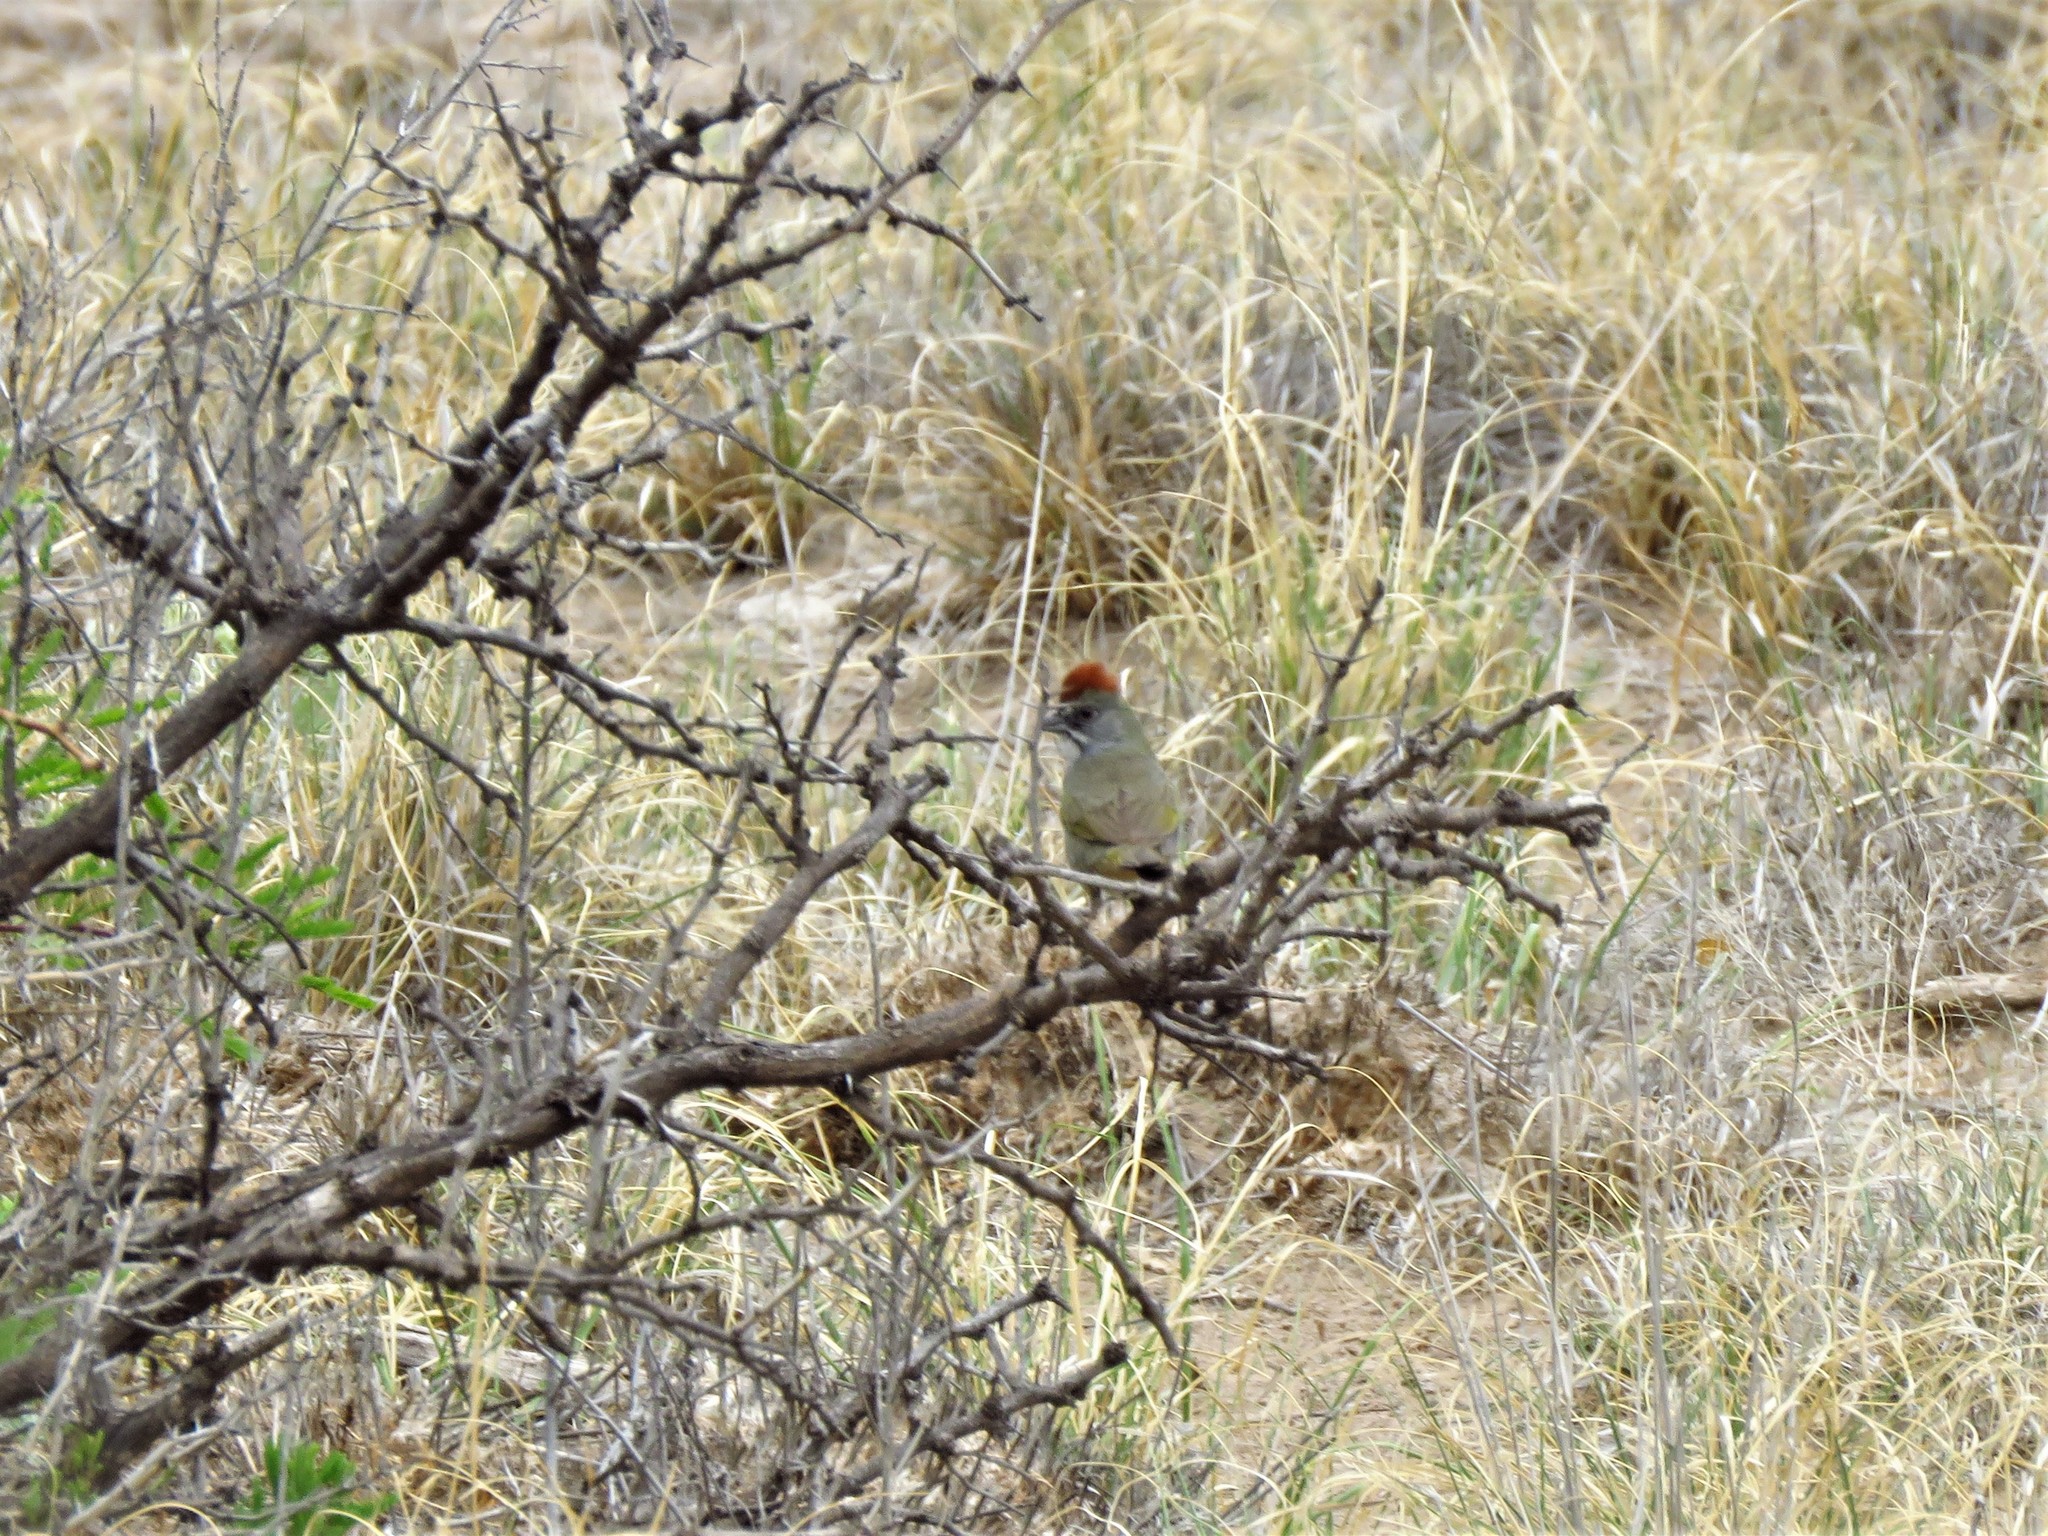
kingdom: Animalia
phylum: Chordata
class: Aves
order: Passeriformes
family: Passerellidae
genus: Pipilo
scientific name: Pipilo chlorurus
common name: Green-tailed towhee
